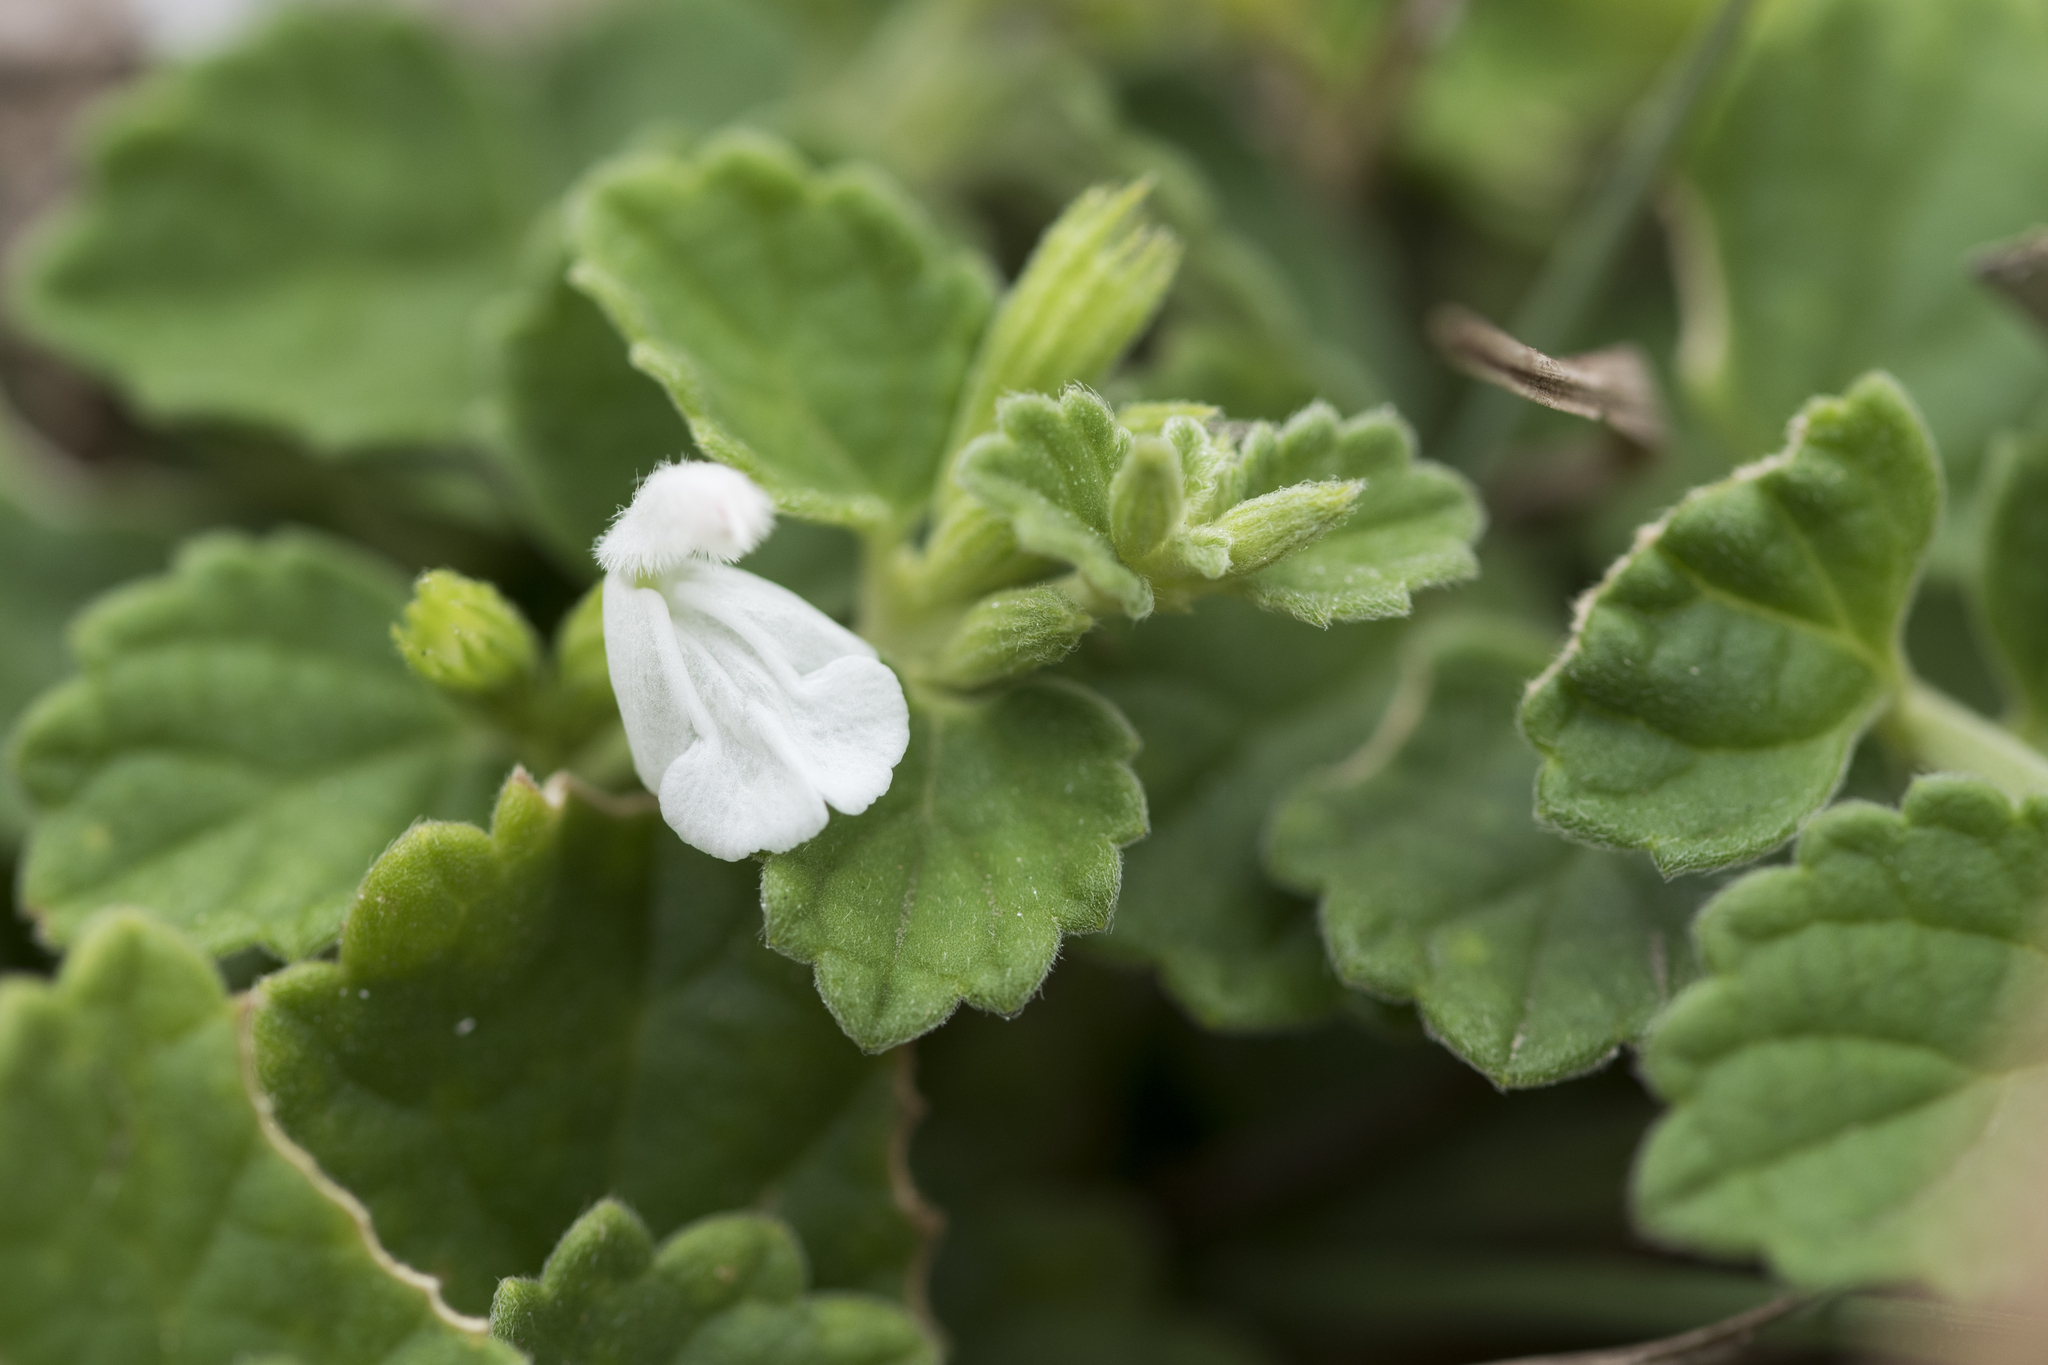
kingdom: Plantae
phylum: Tracheophyta
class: Magnoliopsida
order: Lamiales
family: Lamiaceae
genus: Leucas
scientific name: Leucas chinensis
